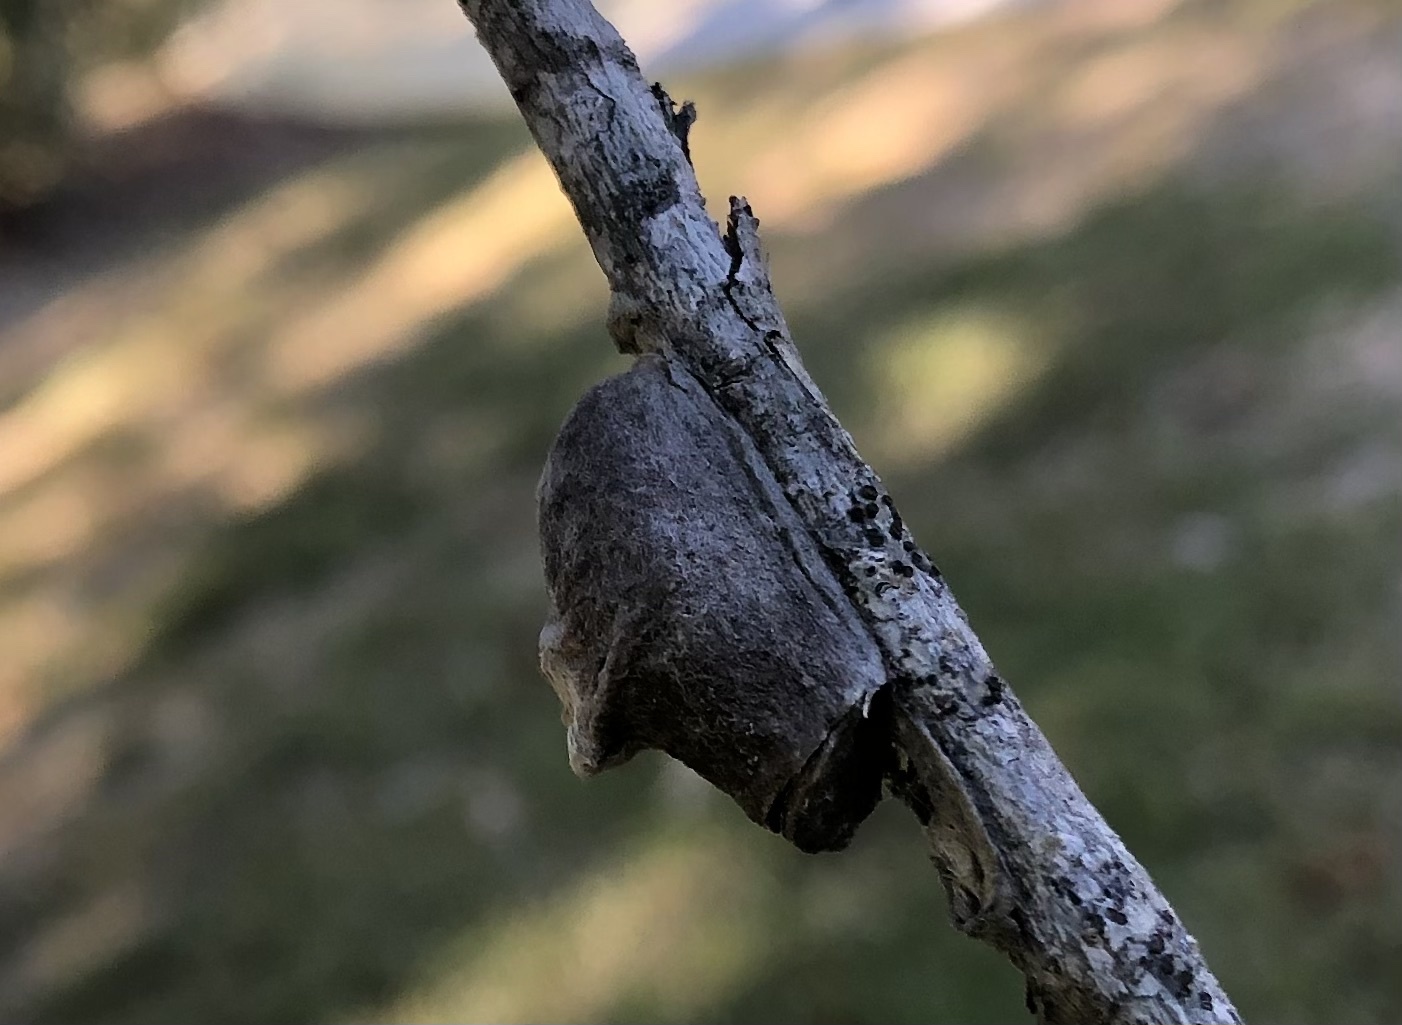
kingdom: Animalia
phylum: Arthropoda
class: Insecta
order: Lepidoptera
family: Megalopygidae
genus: Megalopyge
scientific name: Megalopyge
